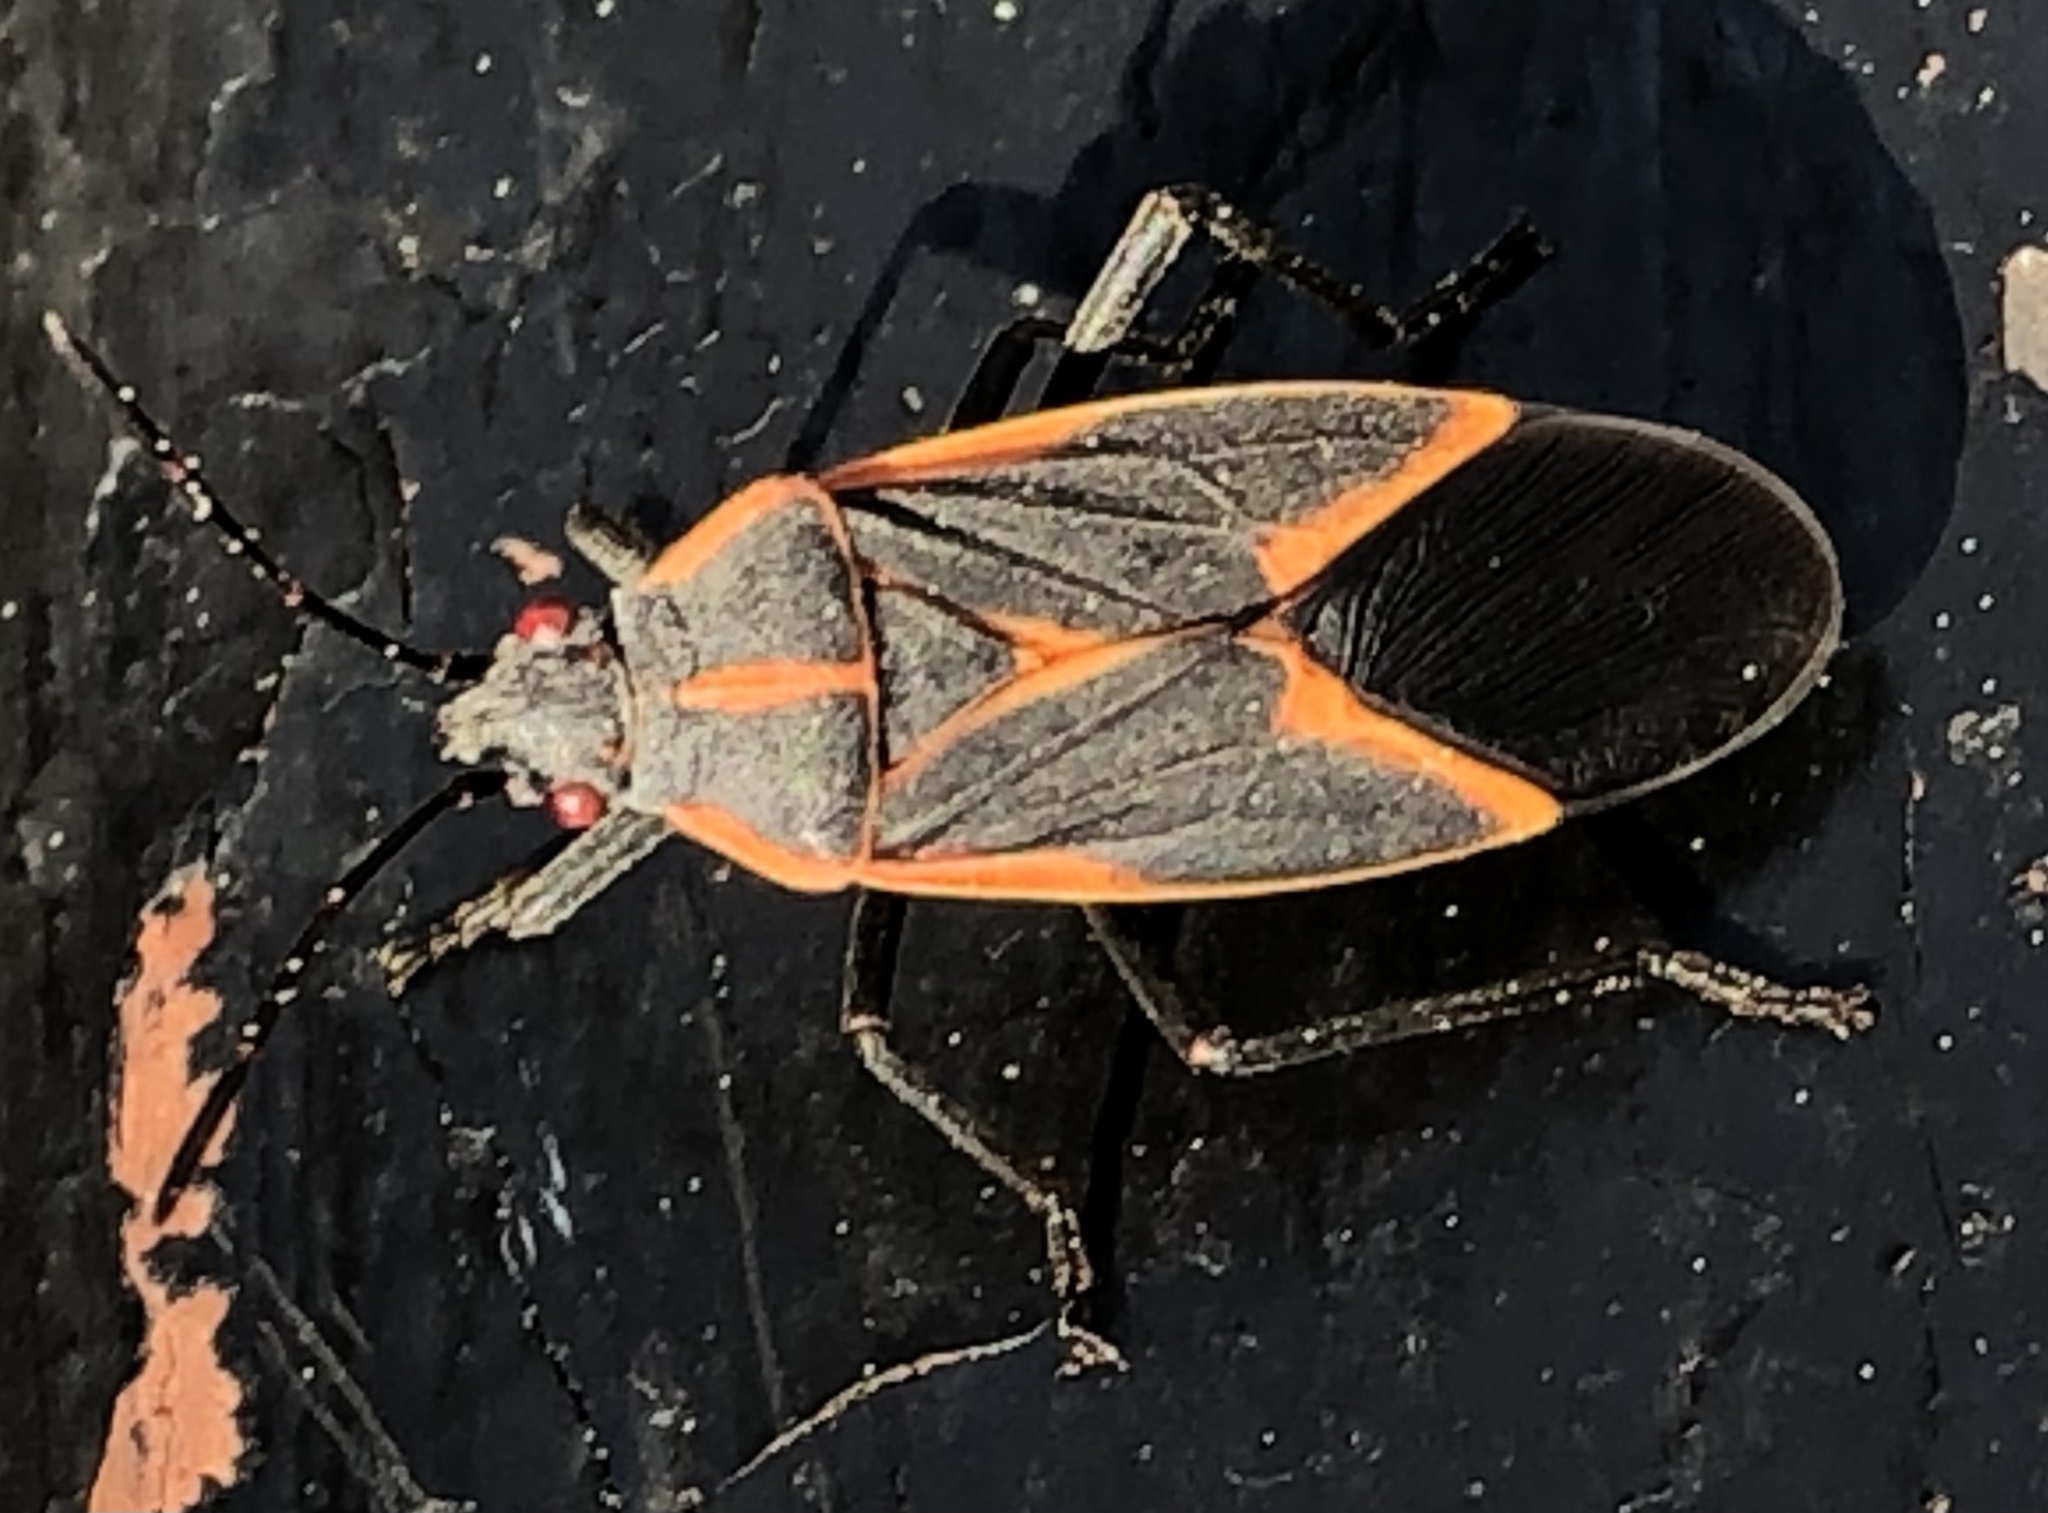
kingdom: Animalia
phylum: Arthropoda
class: Insecta
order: Hemiptera
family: Rhopalidae
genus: Boisea
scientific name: Boisea trivittata
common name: Boxelder bug
